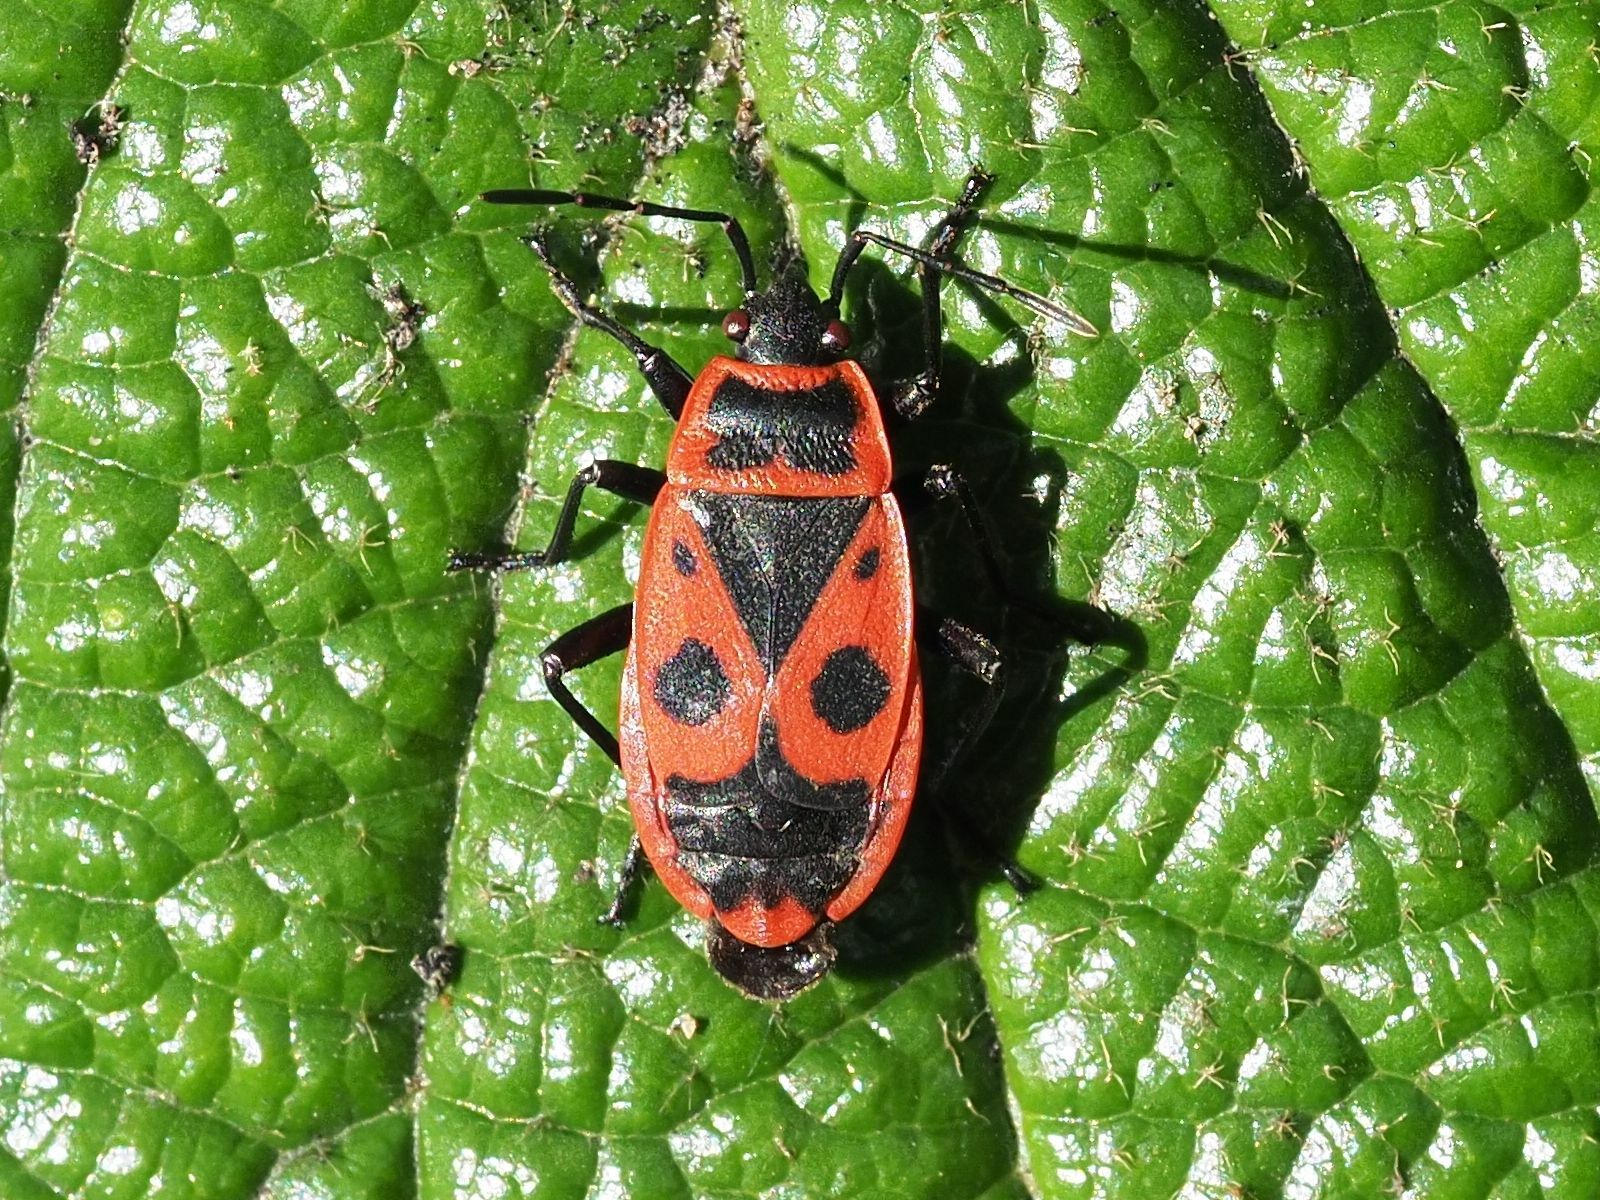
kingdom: Animalia
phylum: Arthropoda
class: Insecta
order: Hemiptera
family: Pyrrhocoridae
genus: Pyrrhocoris
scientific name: Pyrrhocoris apterus
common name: Firebug
